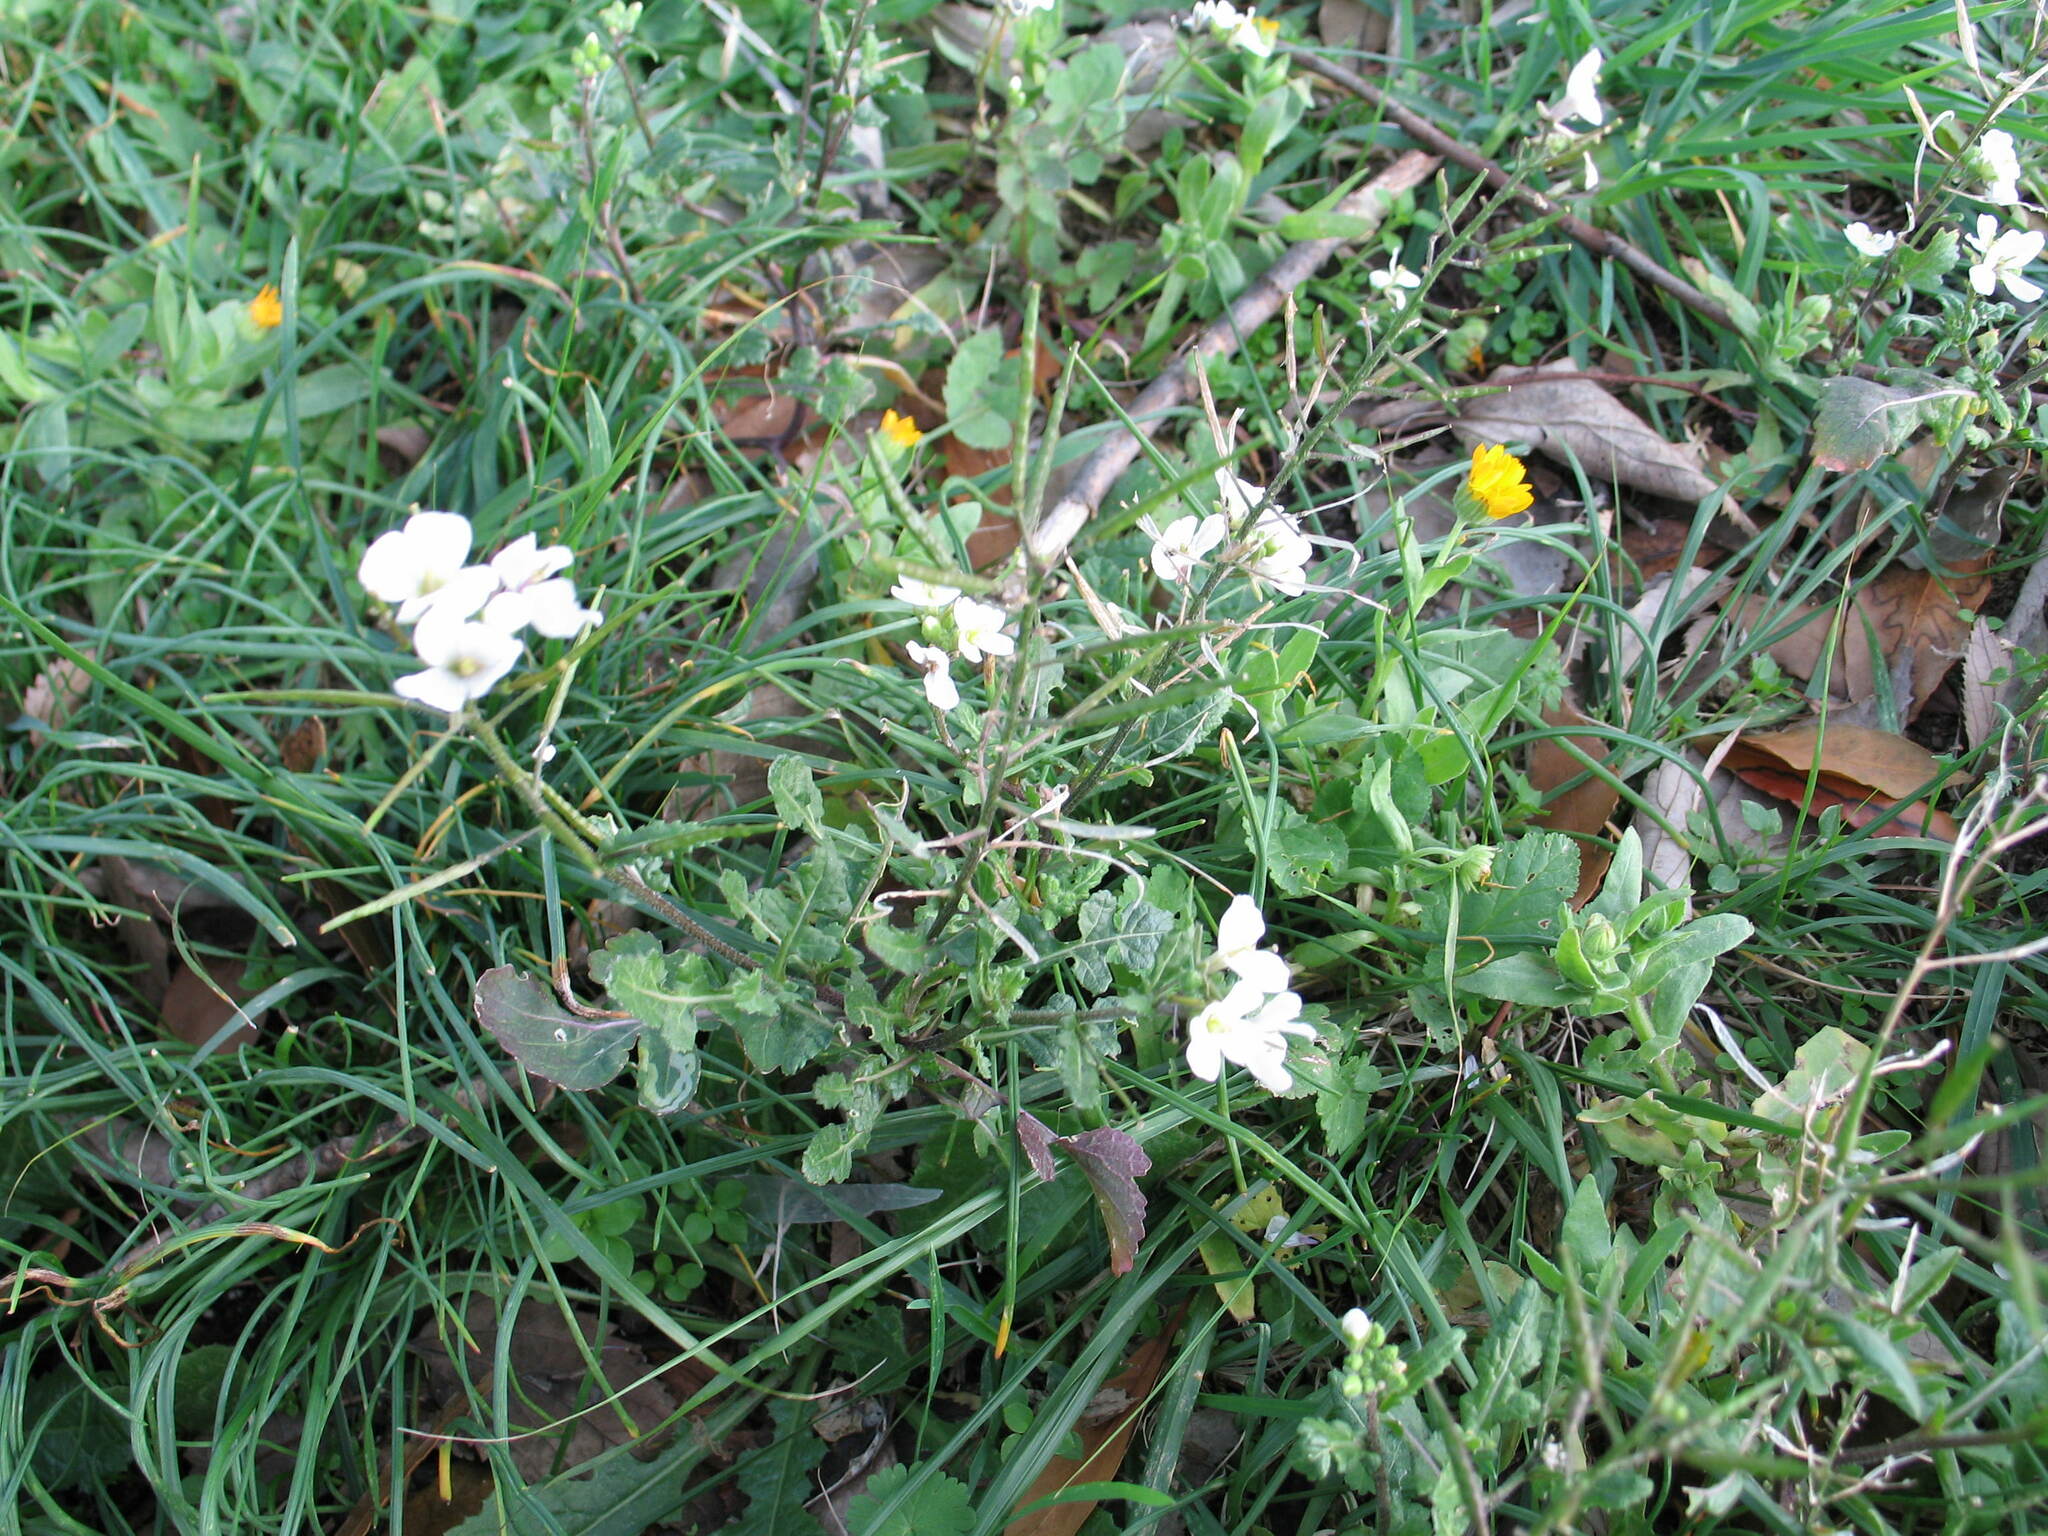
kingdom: Plantae
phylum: Tracheophyta
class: Magnoliopsida
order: Brassicales
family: Brassicaceae
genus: Diplotaxis
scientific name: Diplotaxis erucoides
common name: White rocket
